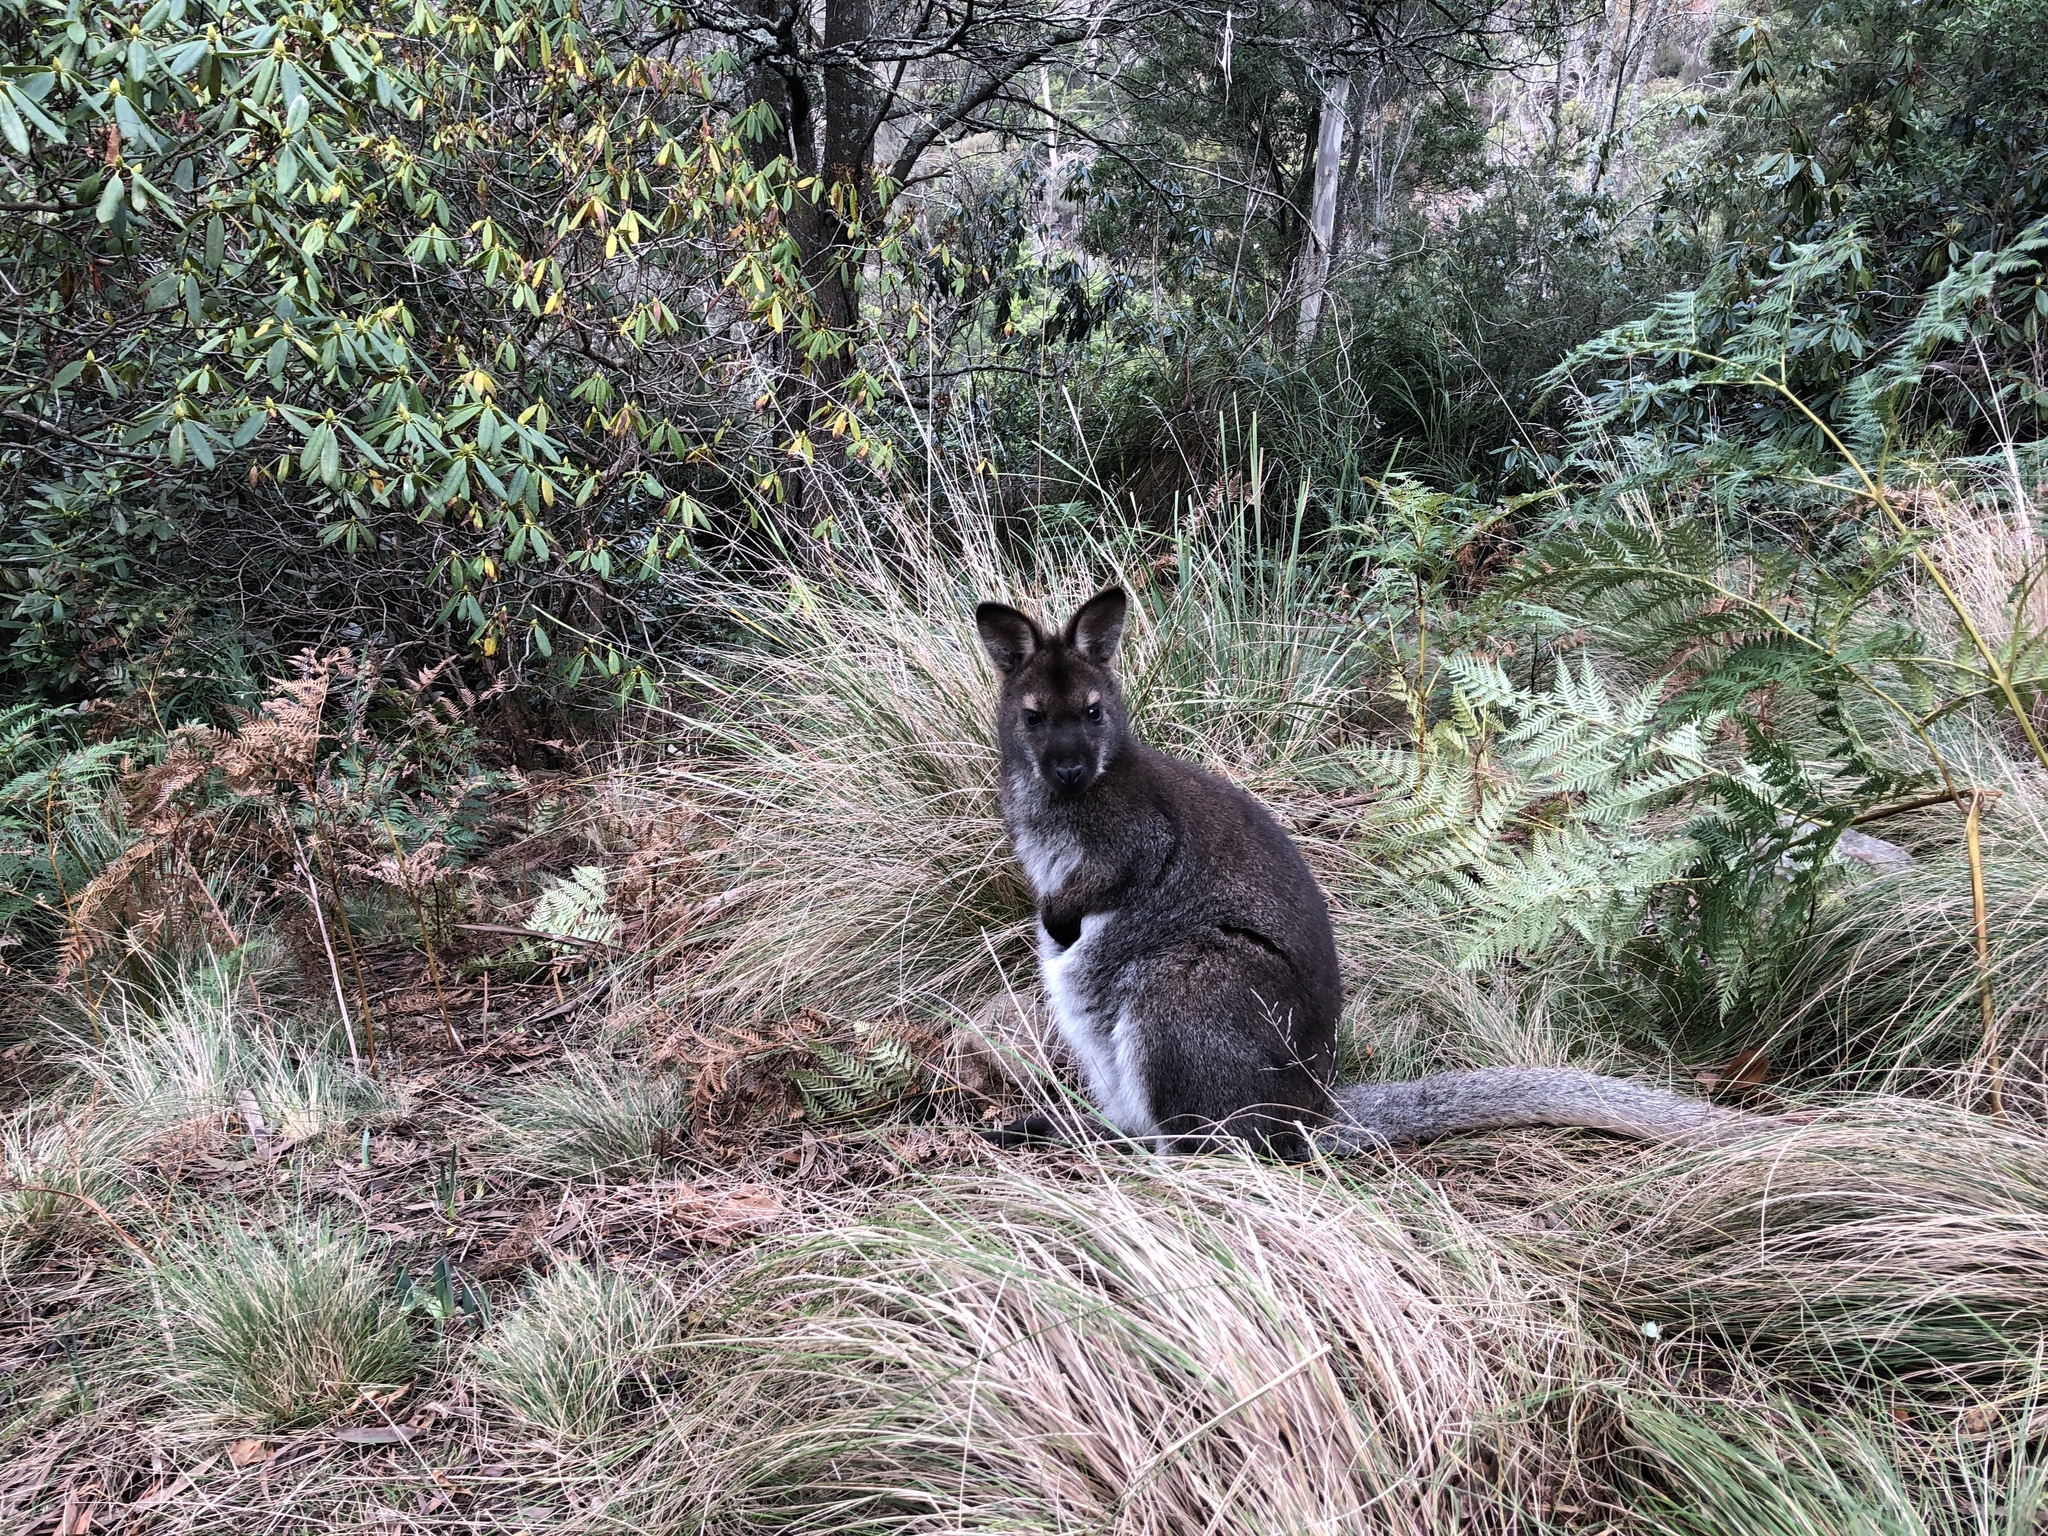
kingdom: Animalia
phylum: Chordata
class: Mammalia
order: Diprotodontia
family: Macropodidae
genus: Notamacropus
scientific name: Notamacropus rufogriseus
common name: Red-necked wallaby
